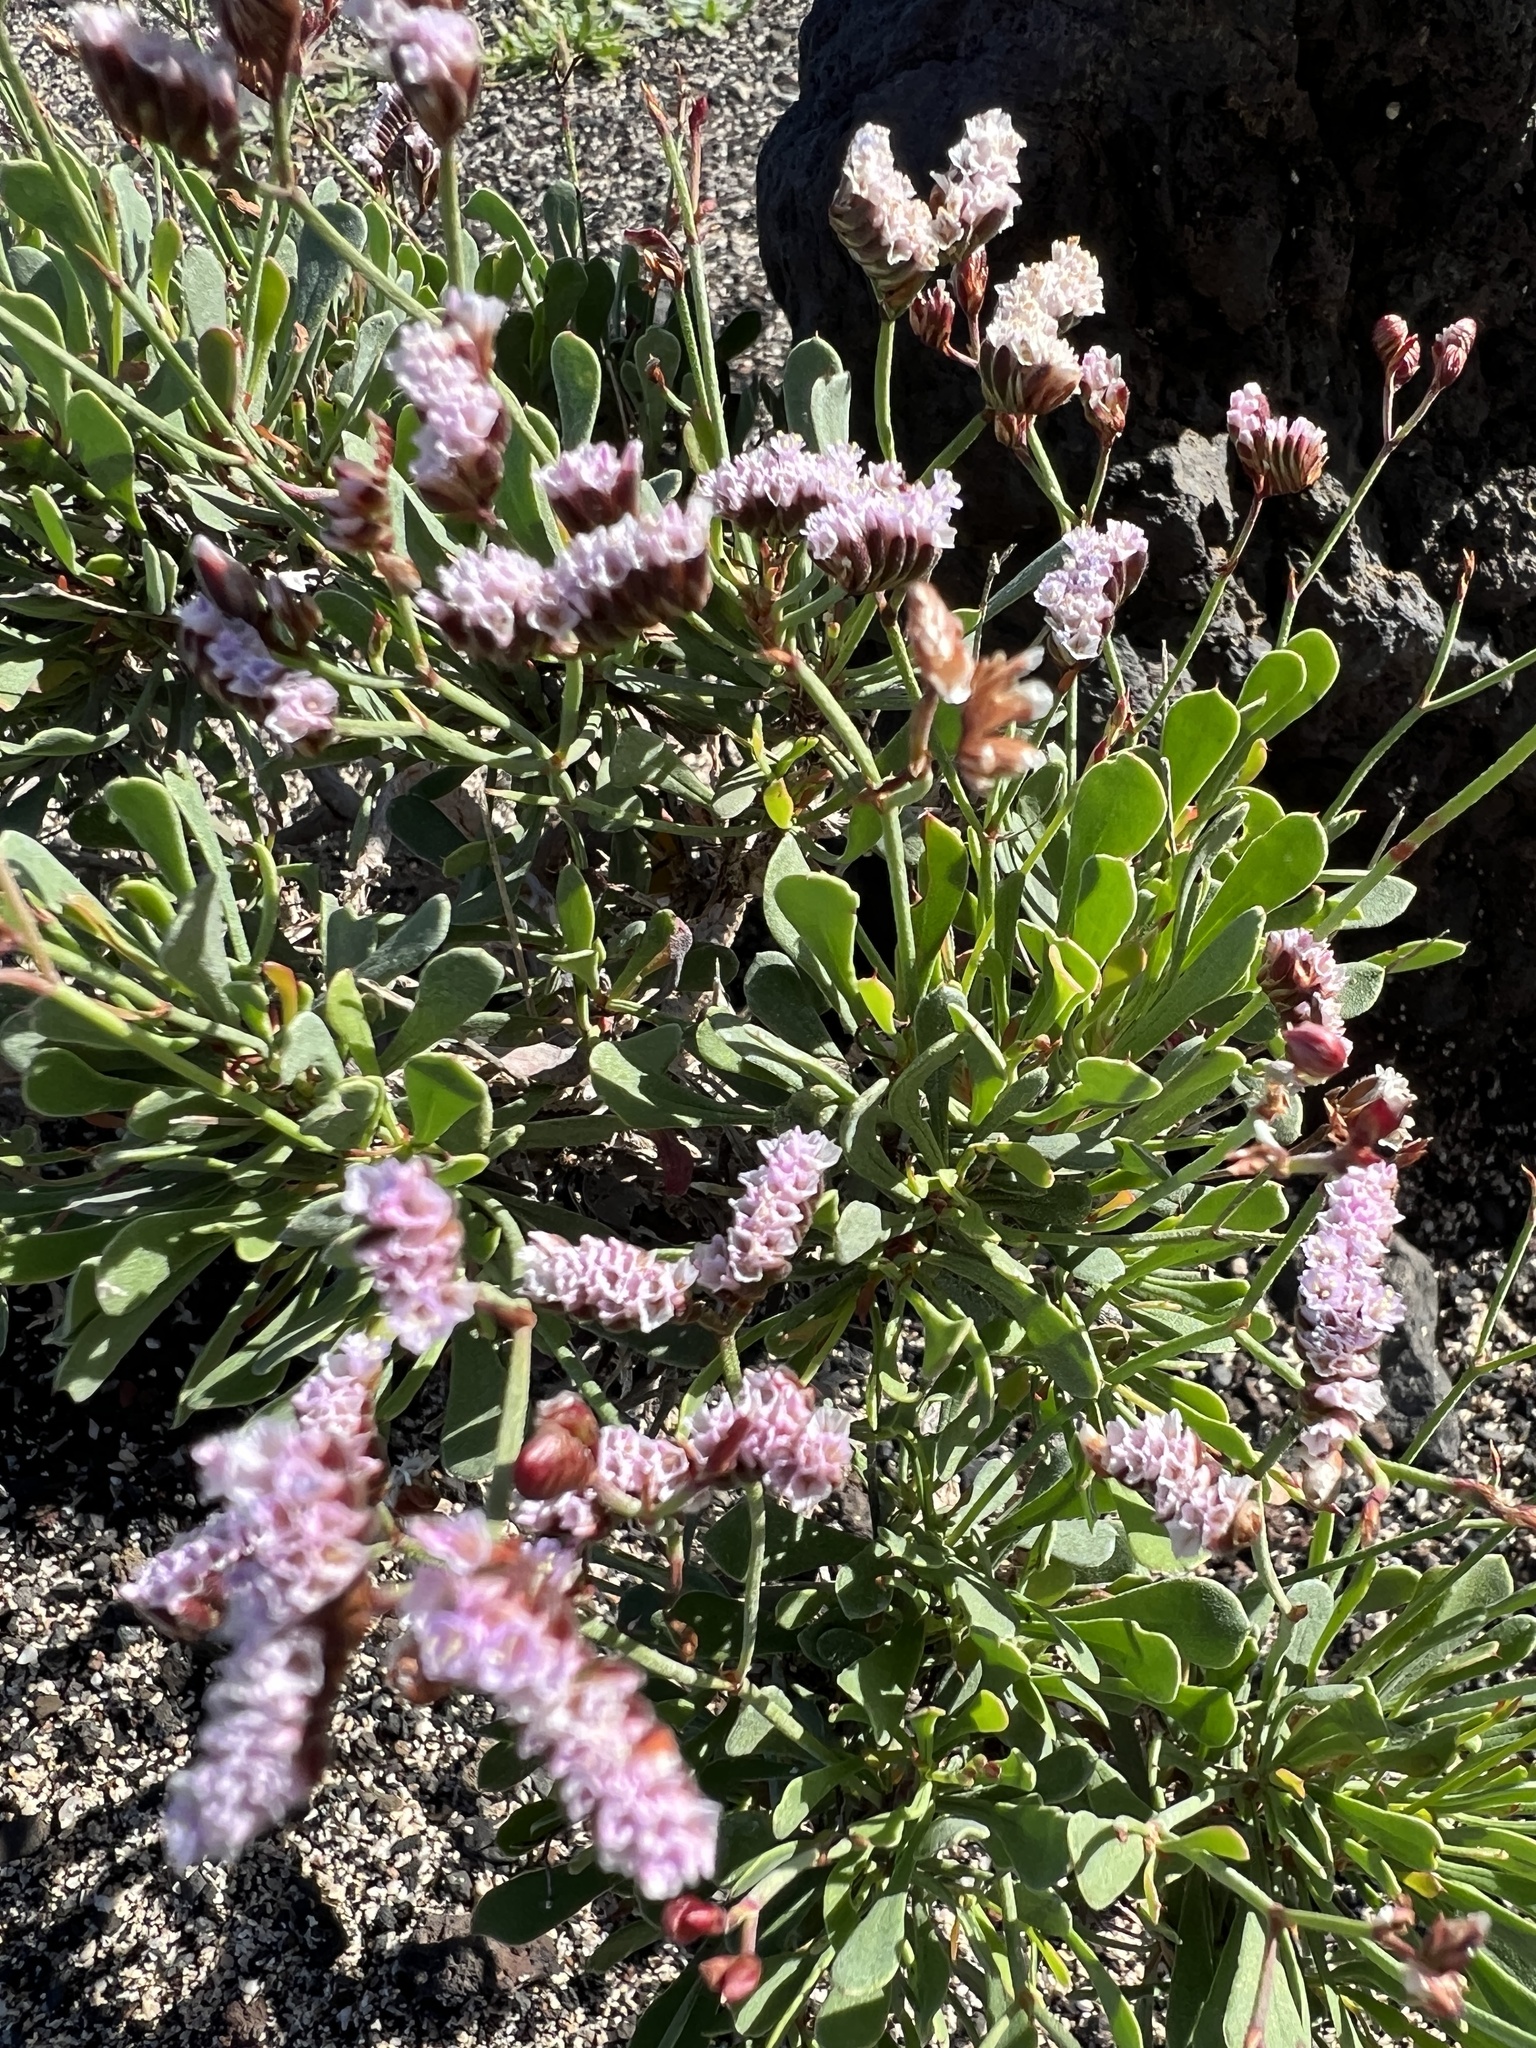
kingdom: Plantae
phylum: Tracheophyta
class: Magnoliopsida
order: Caryophyllales
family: Plumbaginaceae
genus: Limonium
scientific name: Limonium pectinatum
